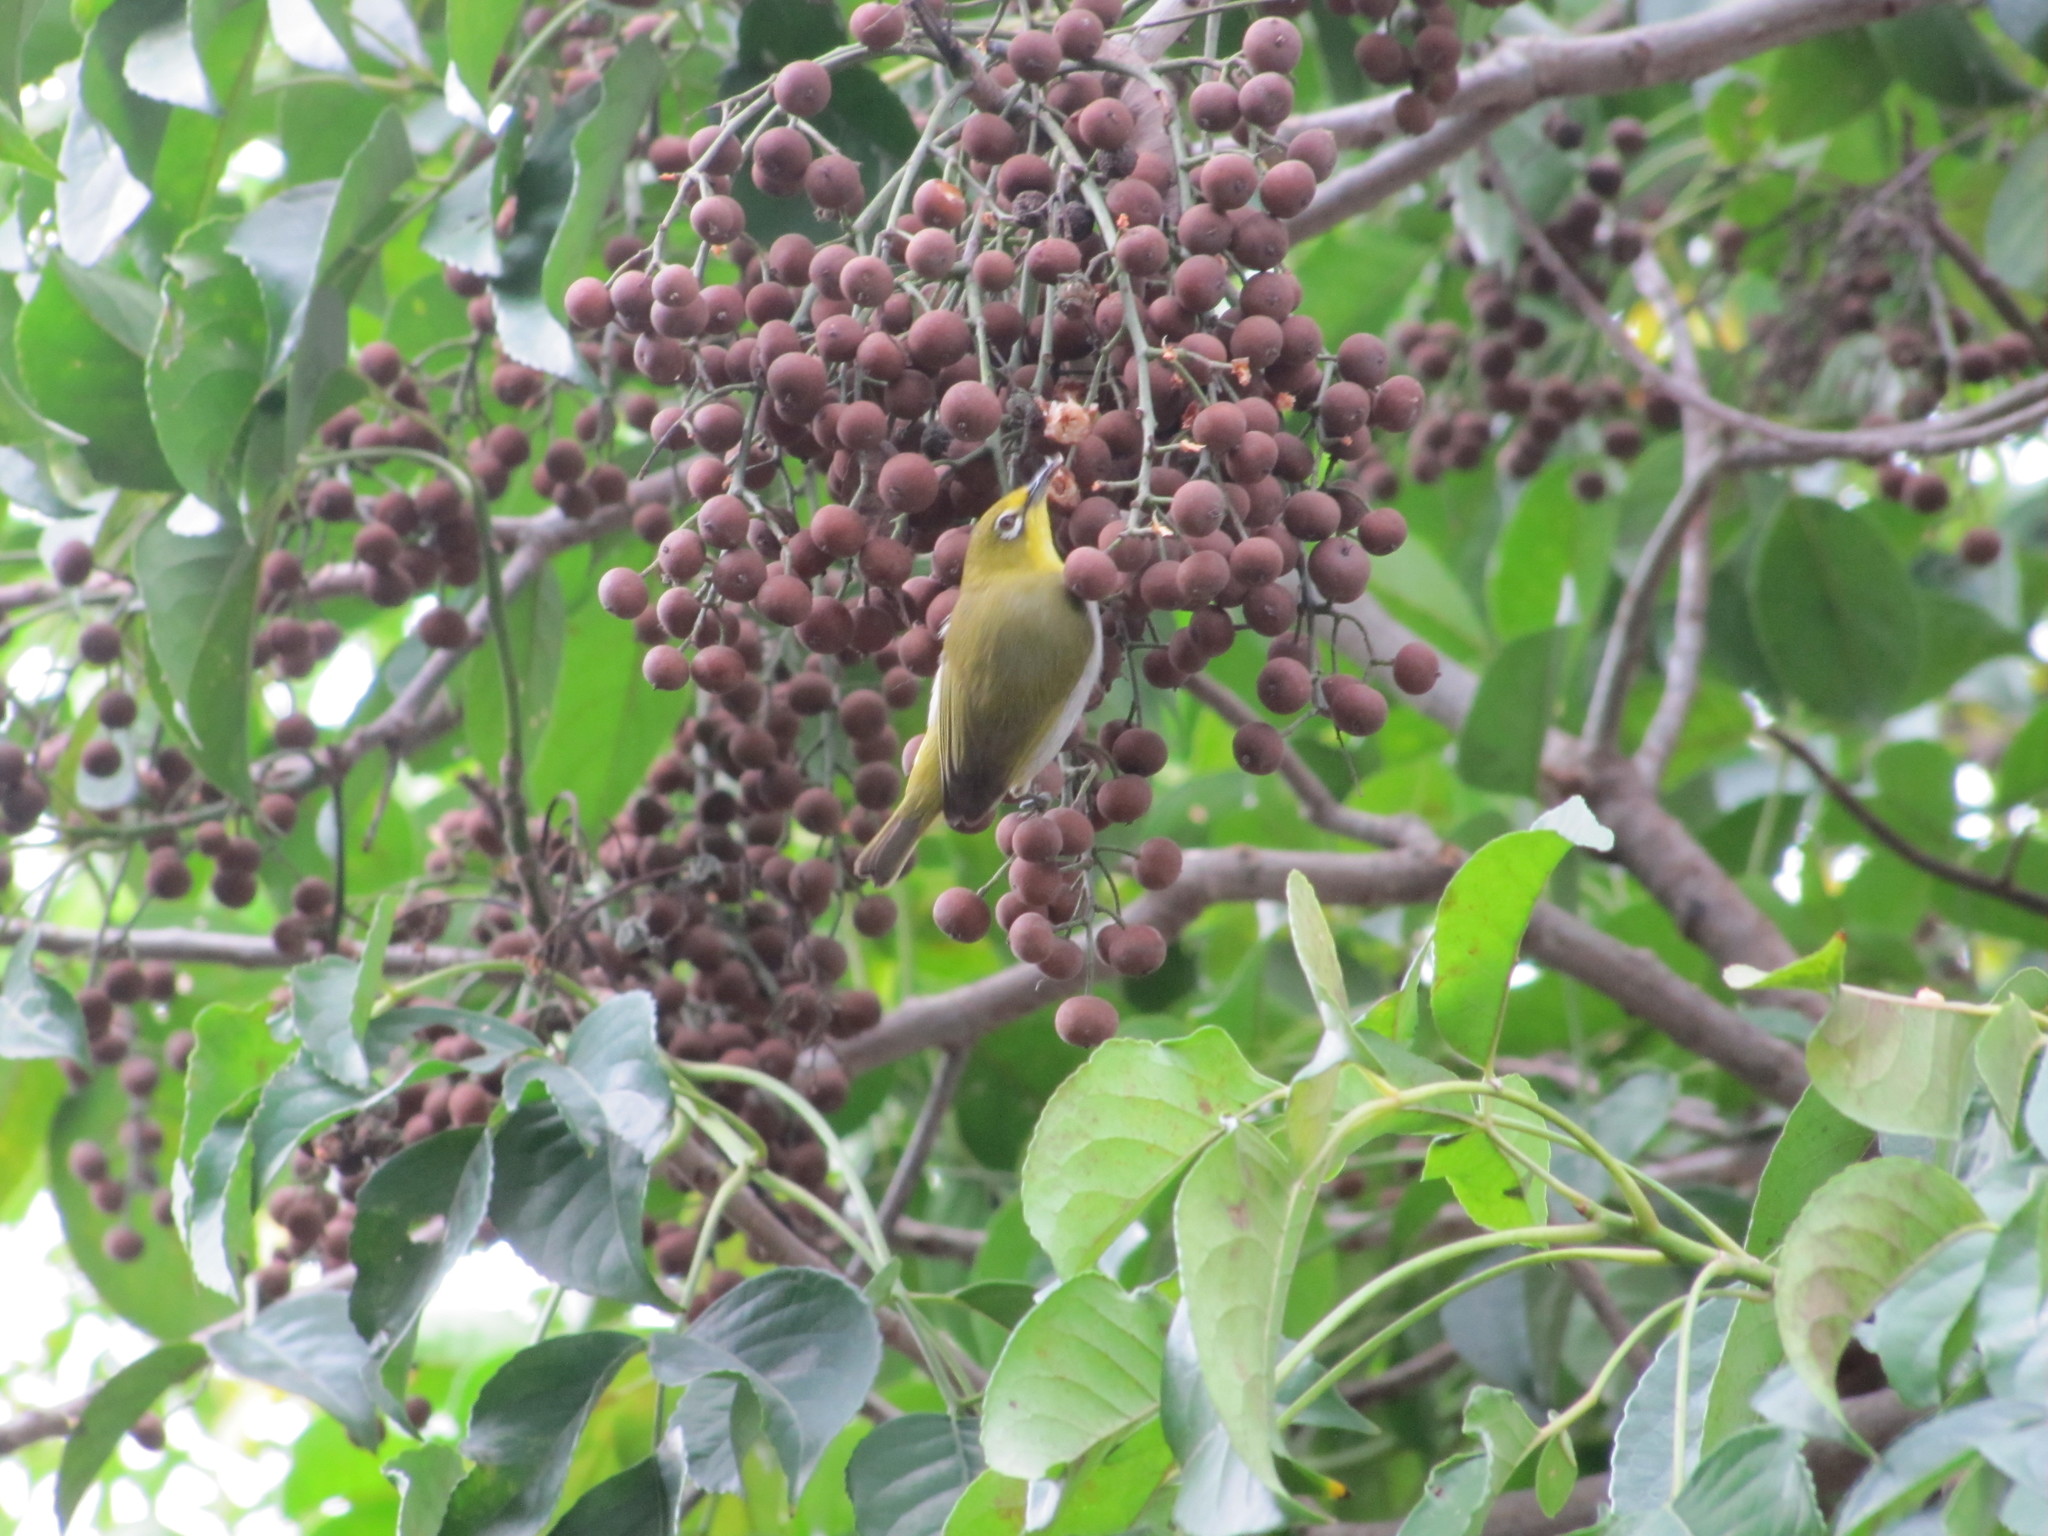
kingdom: Animalia
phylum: Chordata
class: Aves
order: Passeriformes
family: Zosteropidae
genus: Zosterops
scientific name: Zosterops simplex
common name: Swinhoe's white-eye
